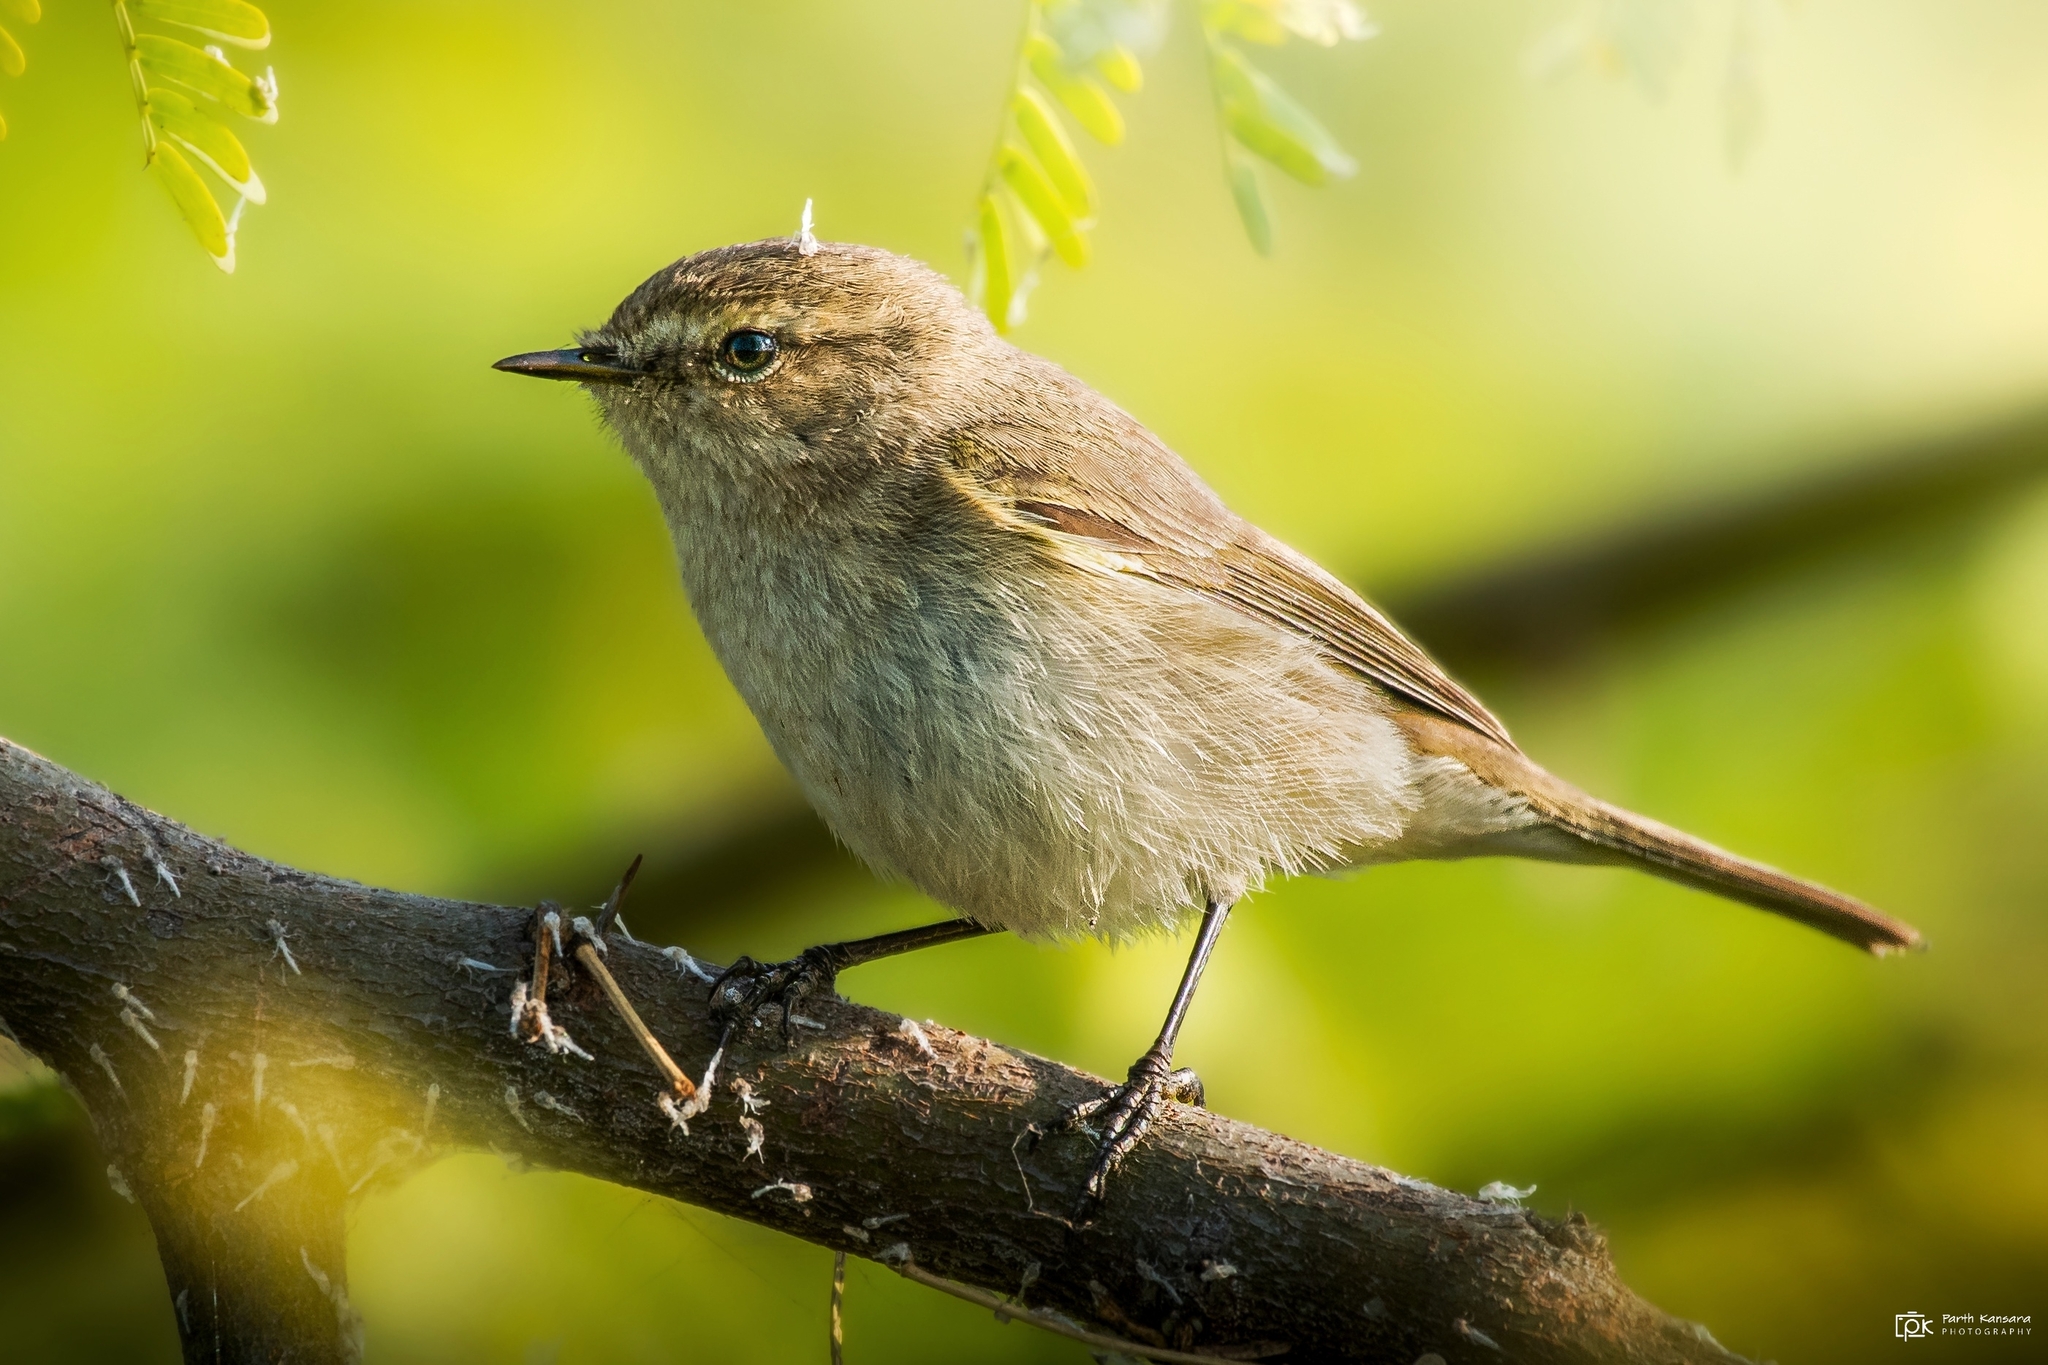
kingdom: Animalia
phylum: Chordata
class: Aves
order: Passeriformes
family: Phylloscopidae
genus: Phylloscopus
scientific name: Phylloscopus collybita
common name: Common chiffchaff
